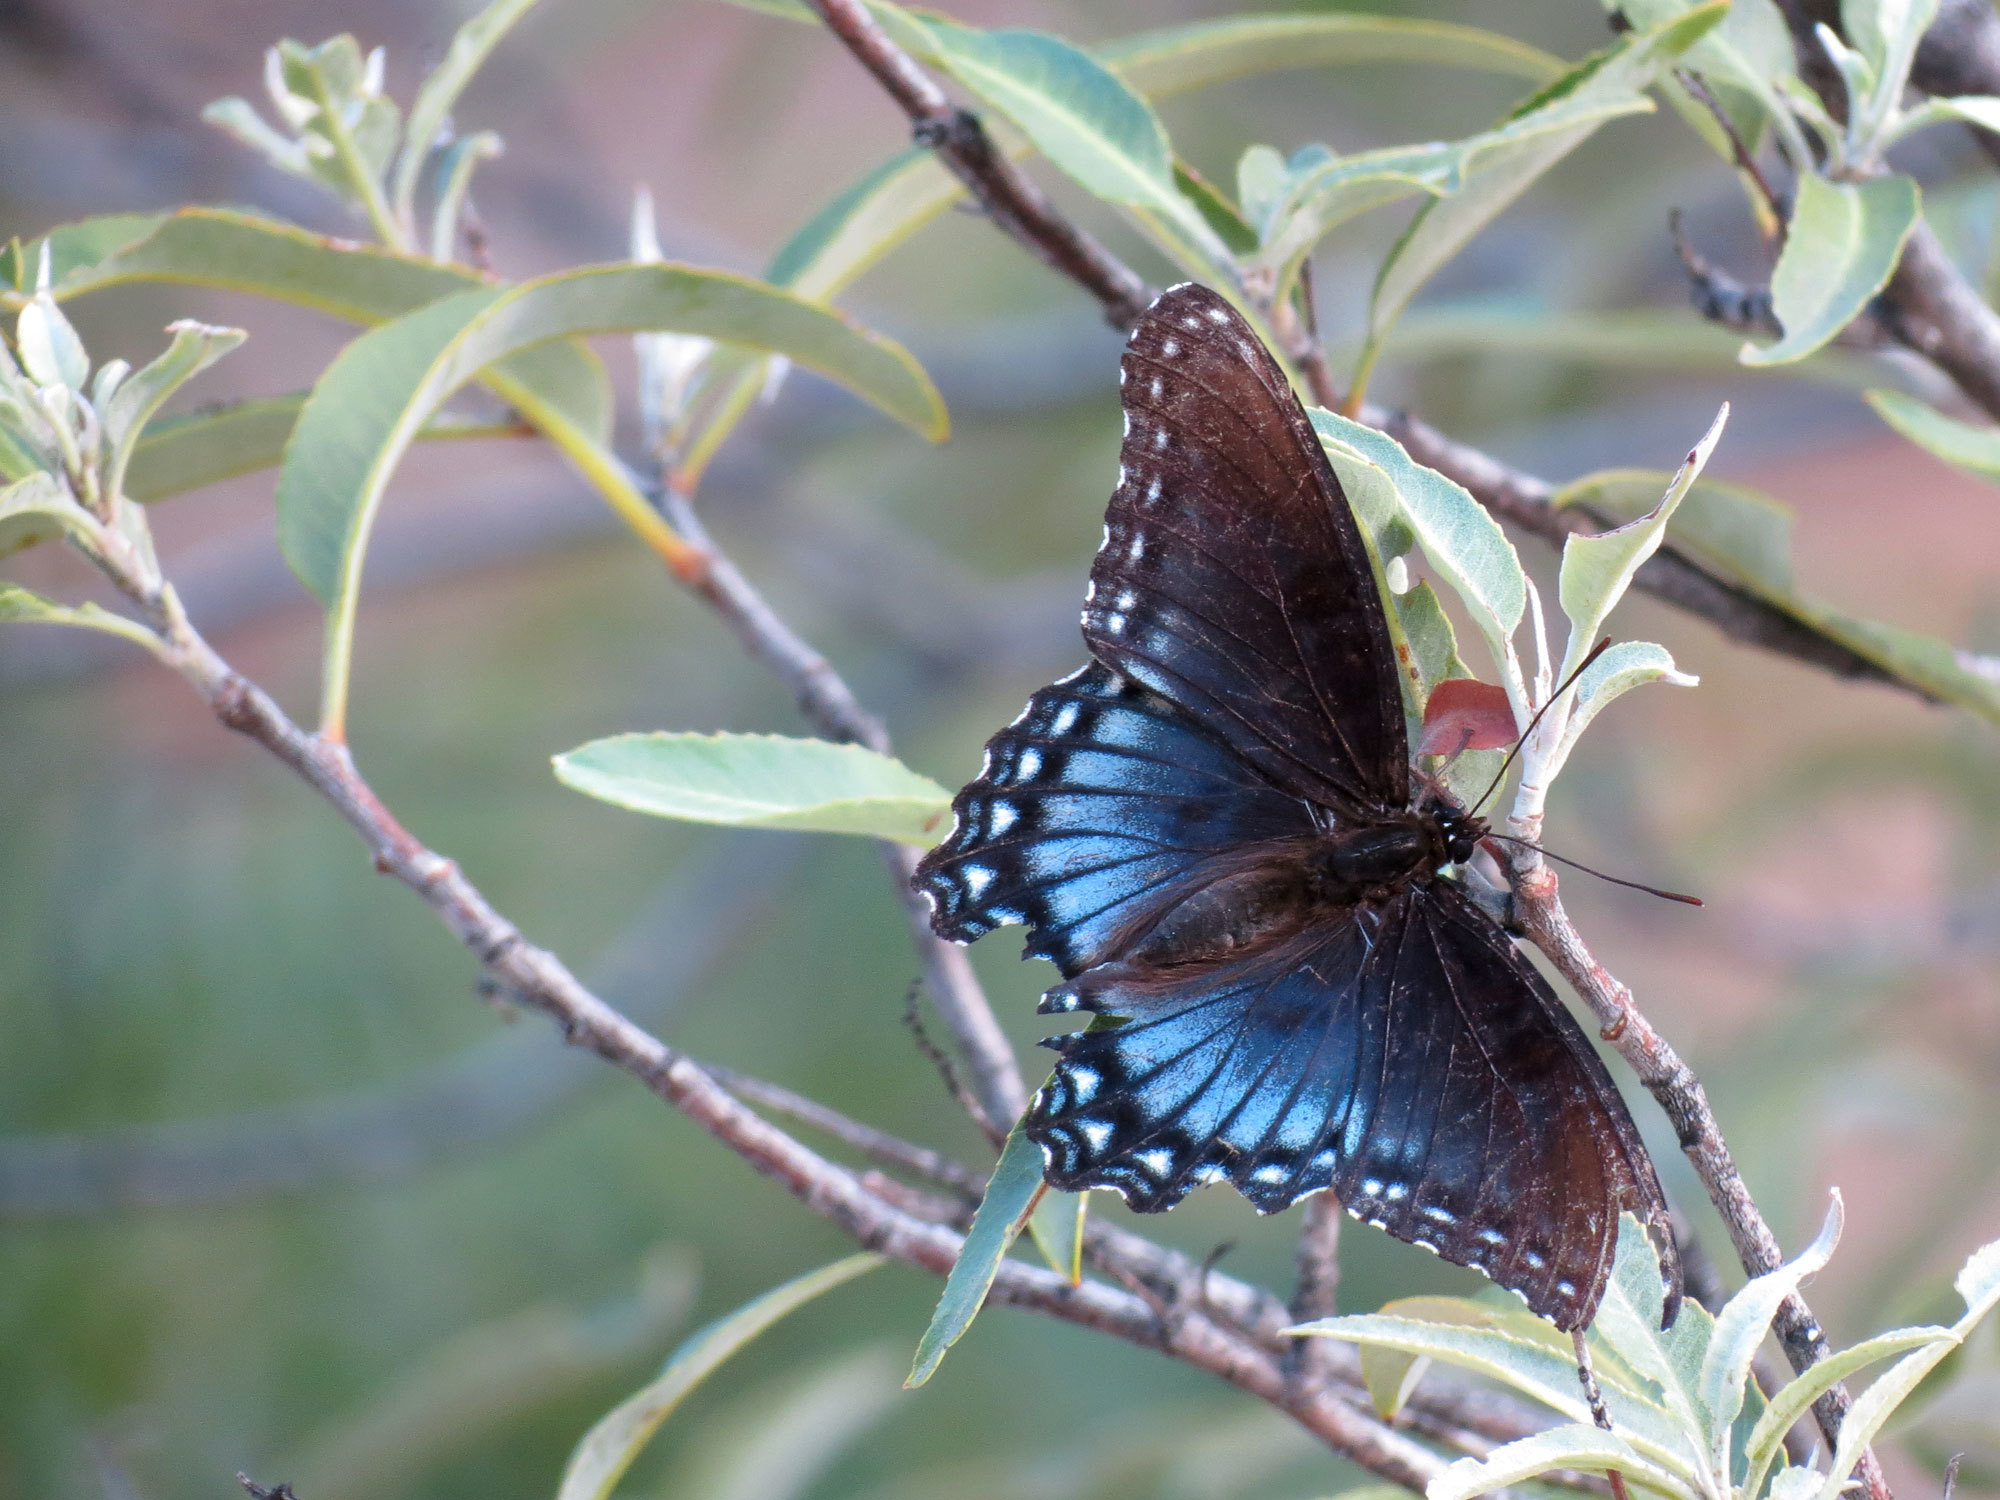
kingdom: Animalia
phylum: Arthropoda
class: Insecta
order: Lepidoptera
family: Nymphalidae
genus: Limenitis
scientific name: Limenitis arthemis
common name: Red-spotted admiral
